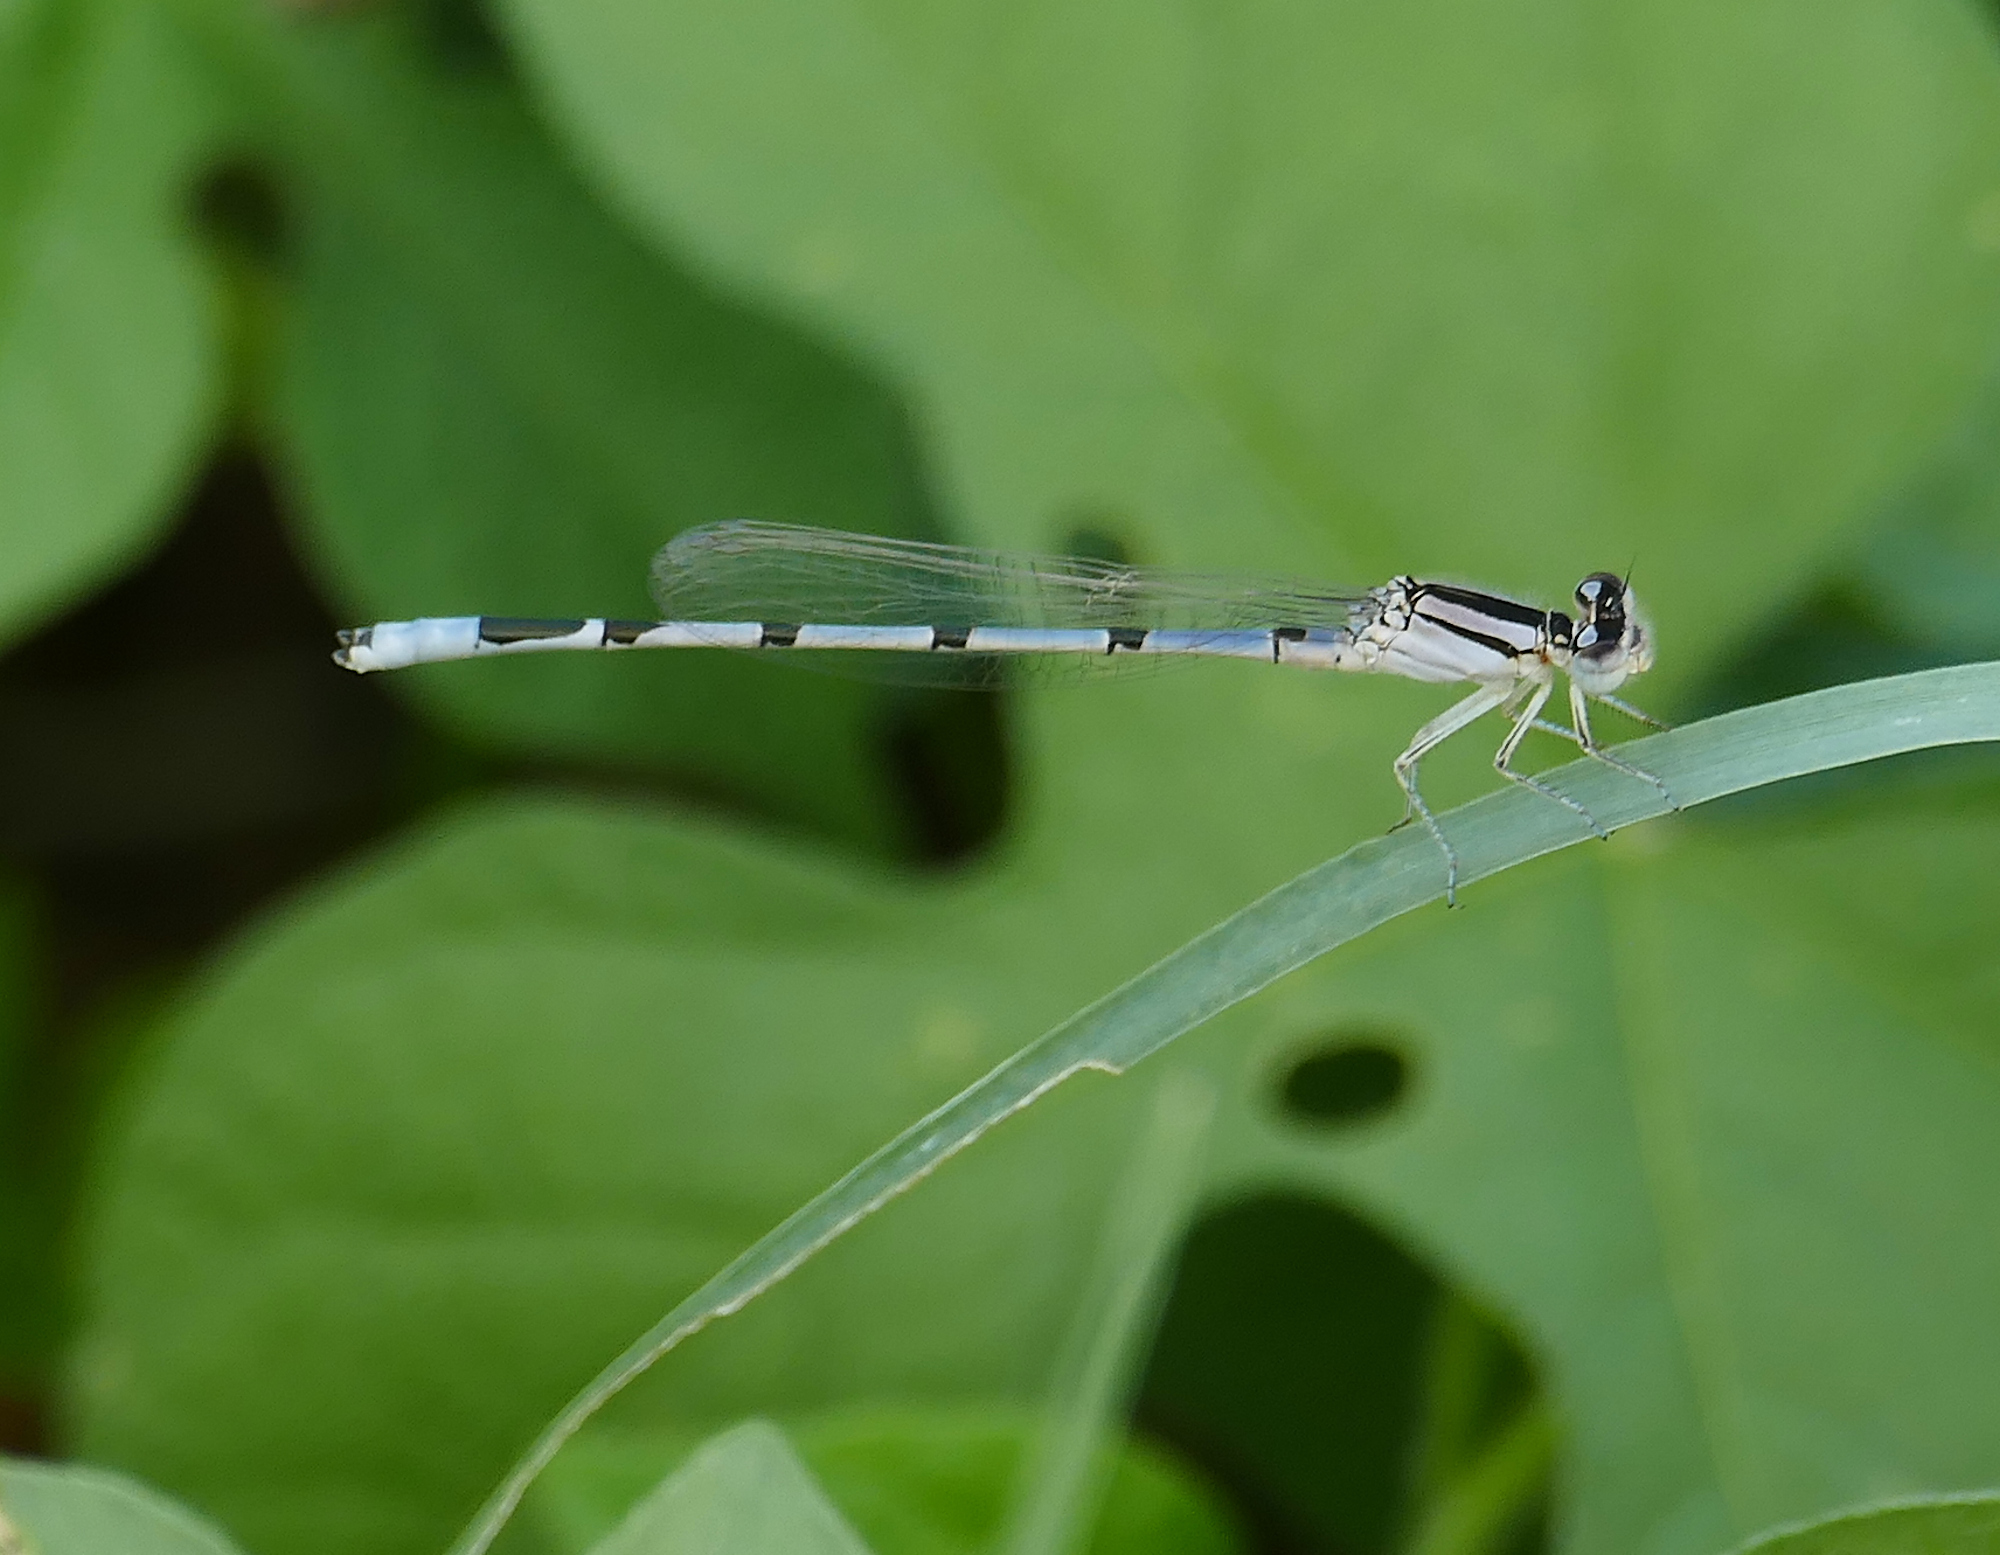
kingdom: Animalia
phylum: Arthropoda
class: Insecta
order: Odonata
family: Coenagrionidae
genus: Enallagma
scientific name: Enallagma civile
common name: Damselfly
